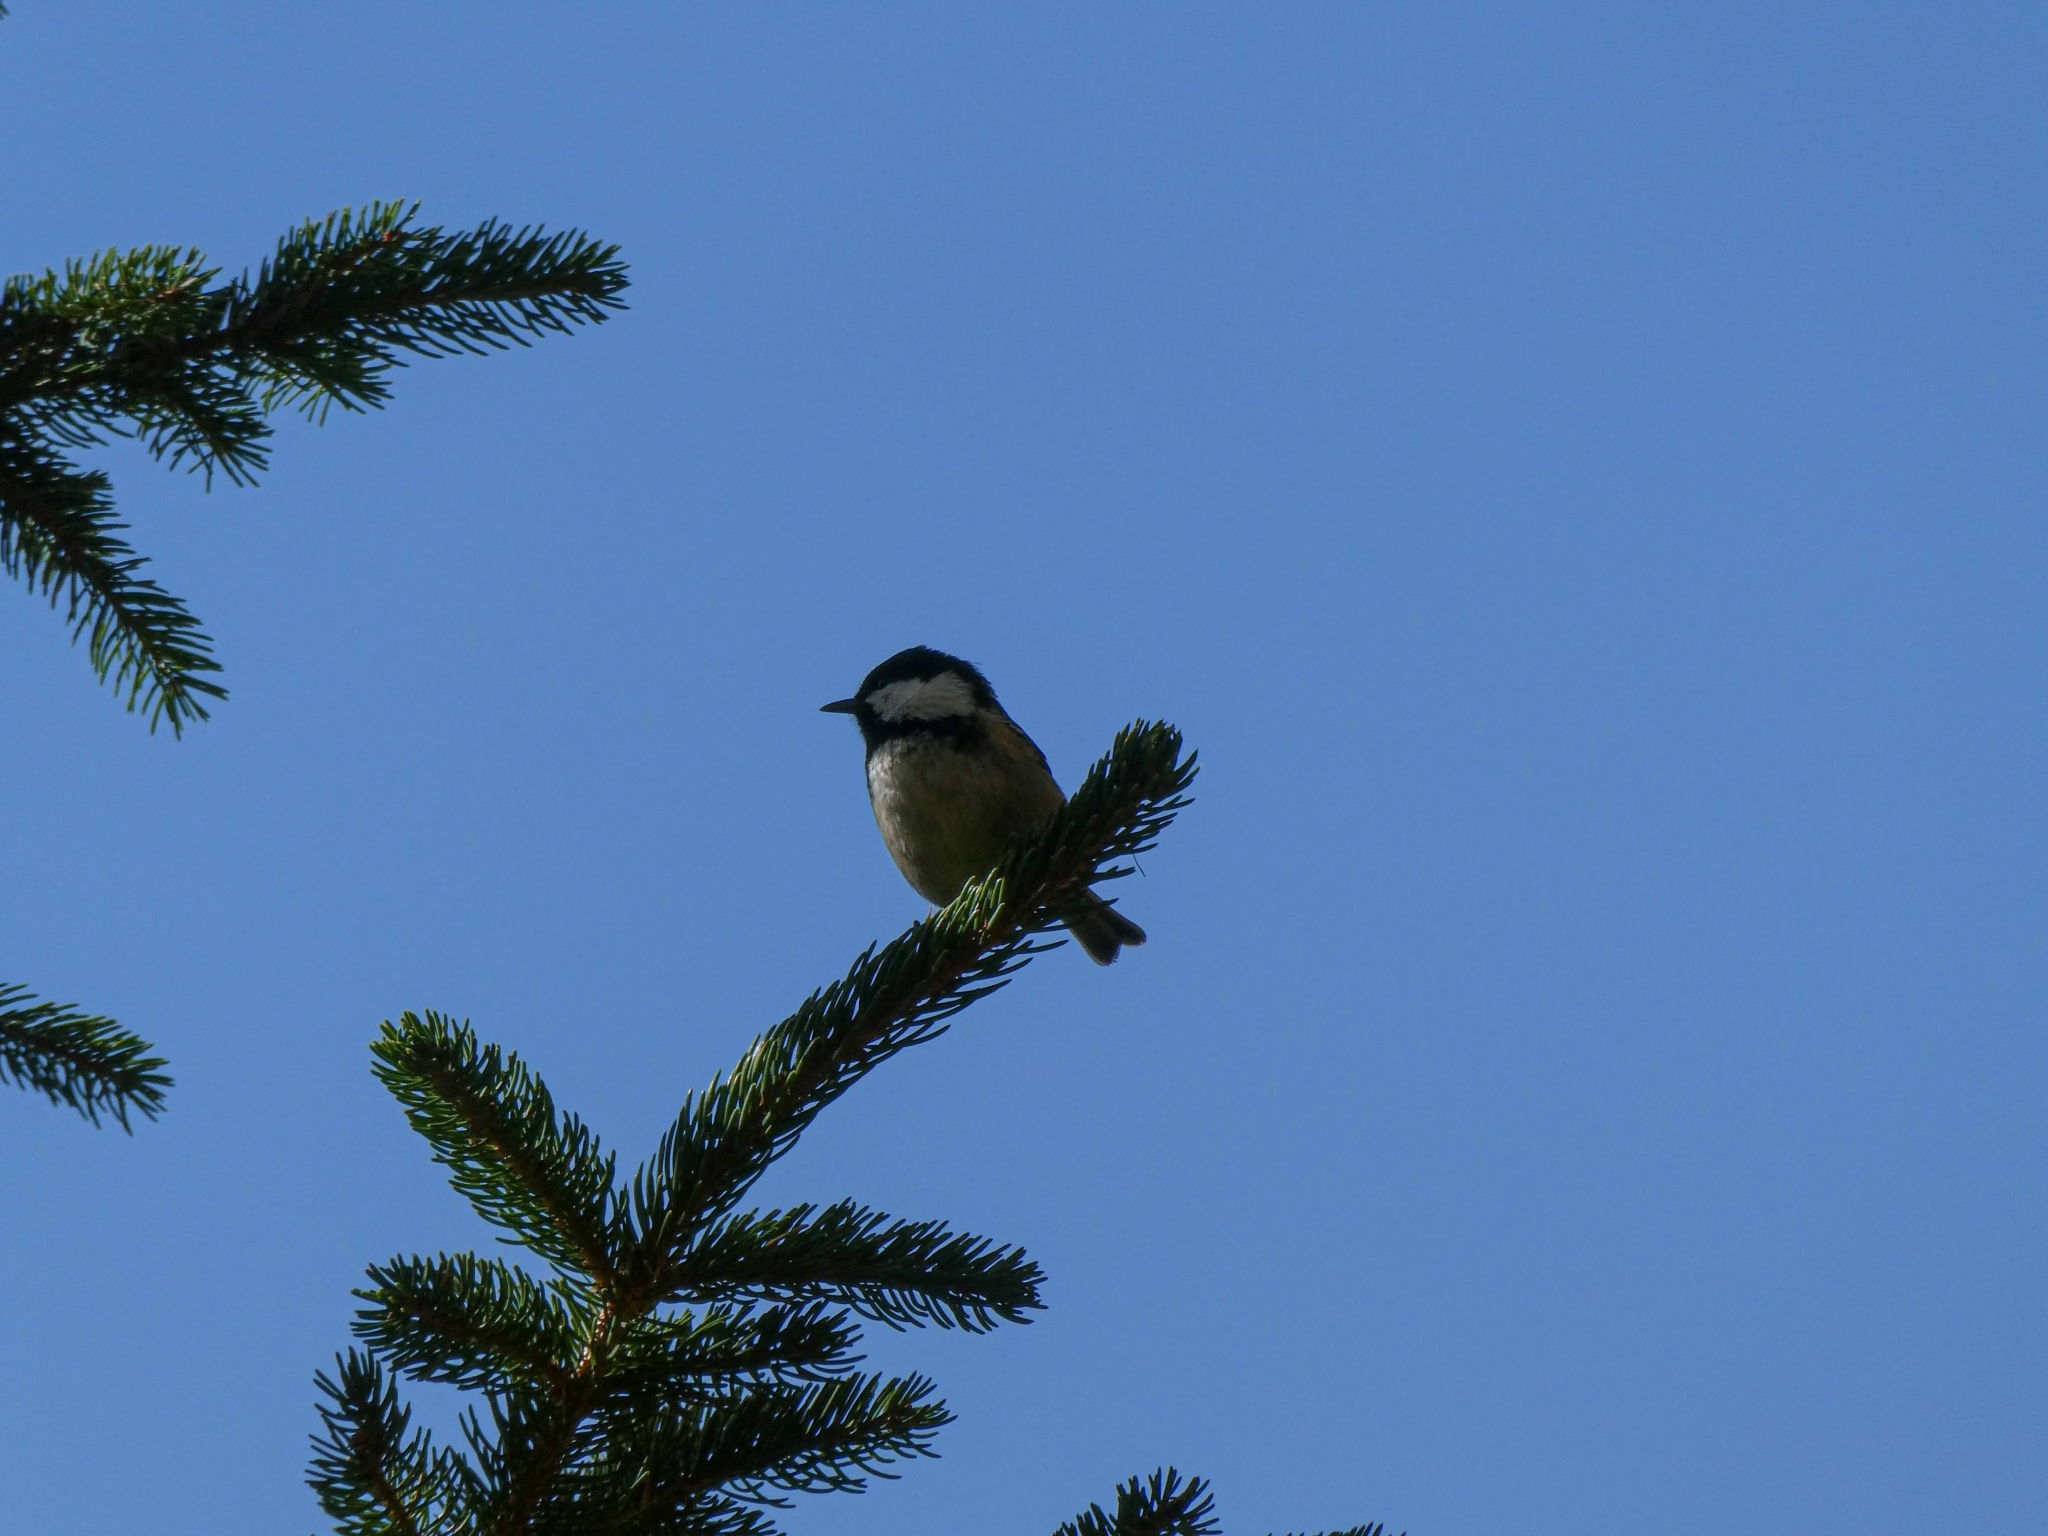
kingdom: Animalia
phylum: Chordata
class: Aves
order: Passeriformes
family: Paridae
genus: Periparus
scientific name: Periparus ater
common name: Coal tit
